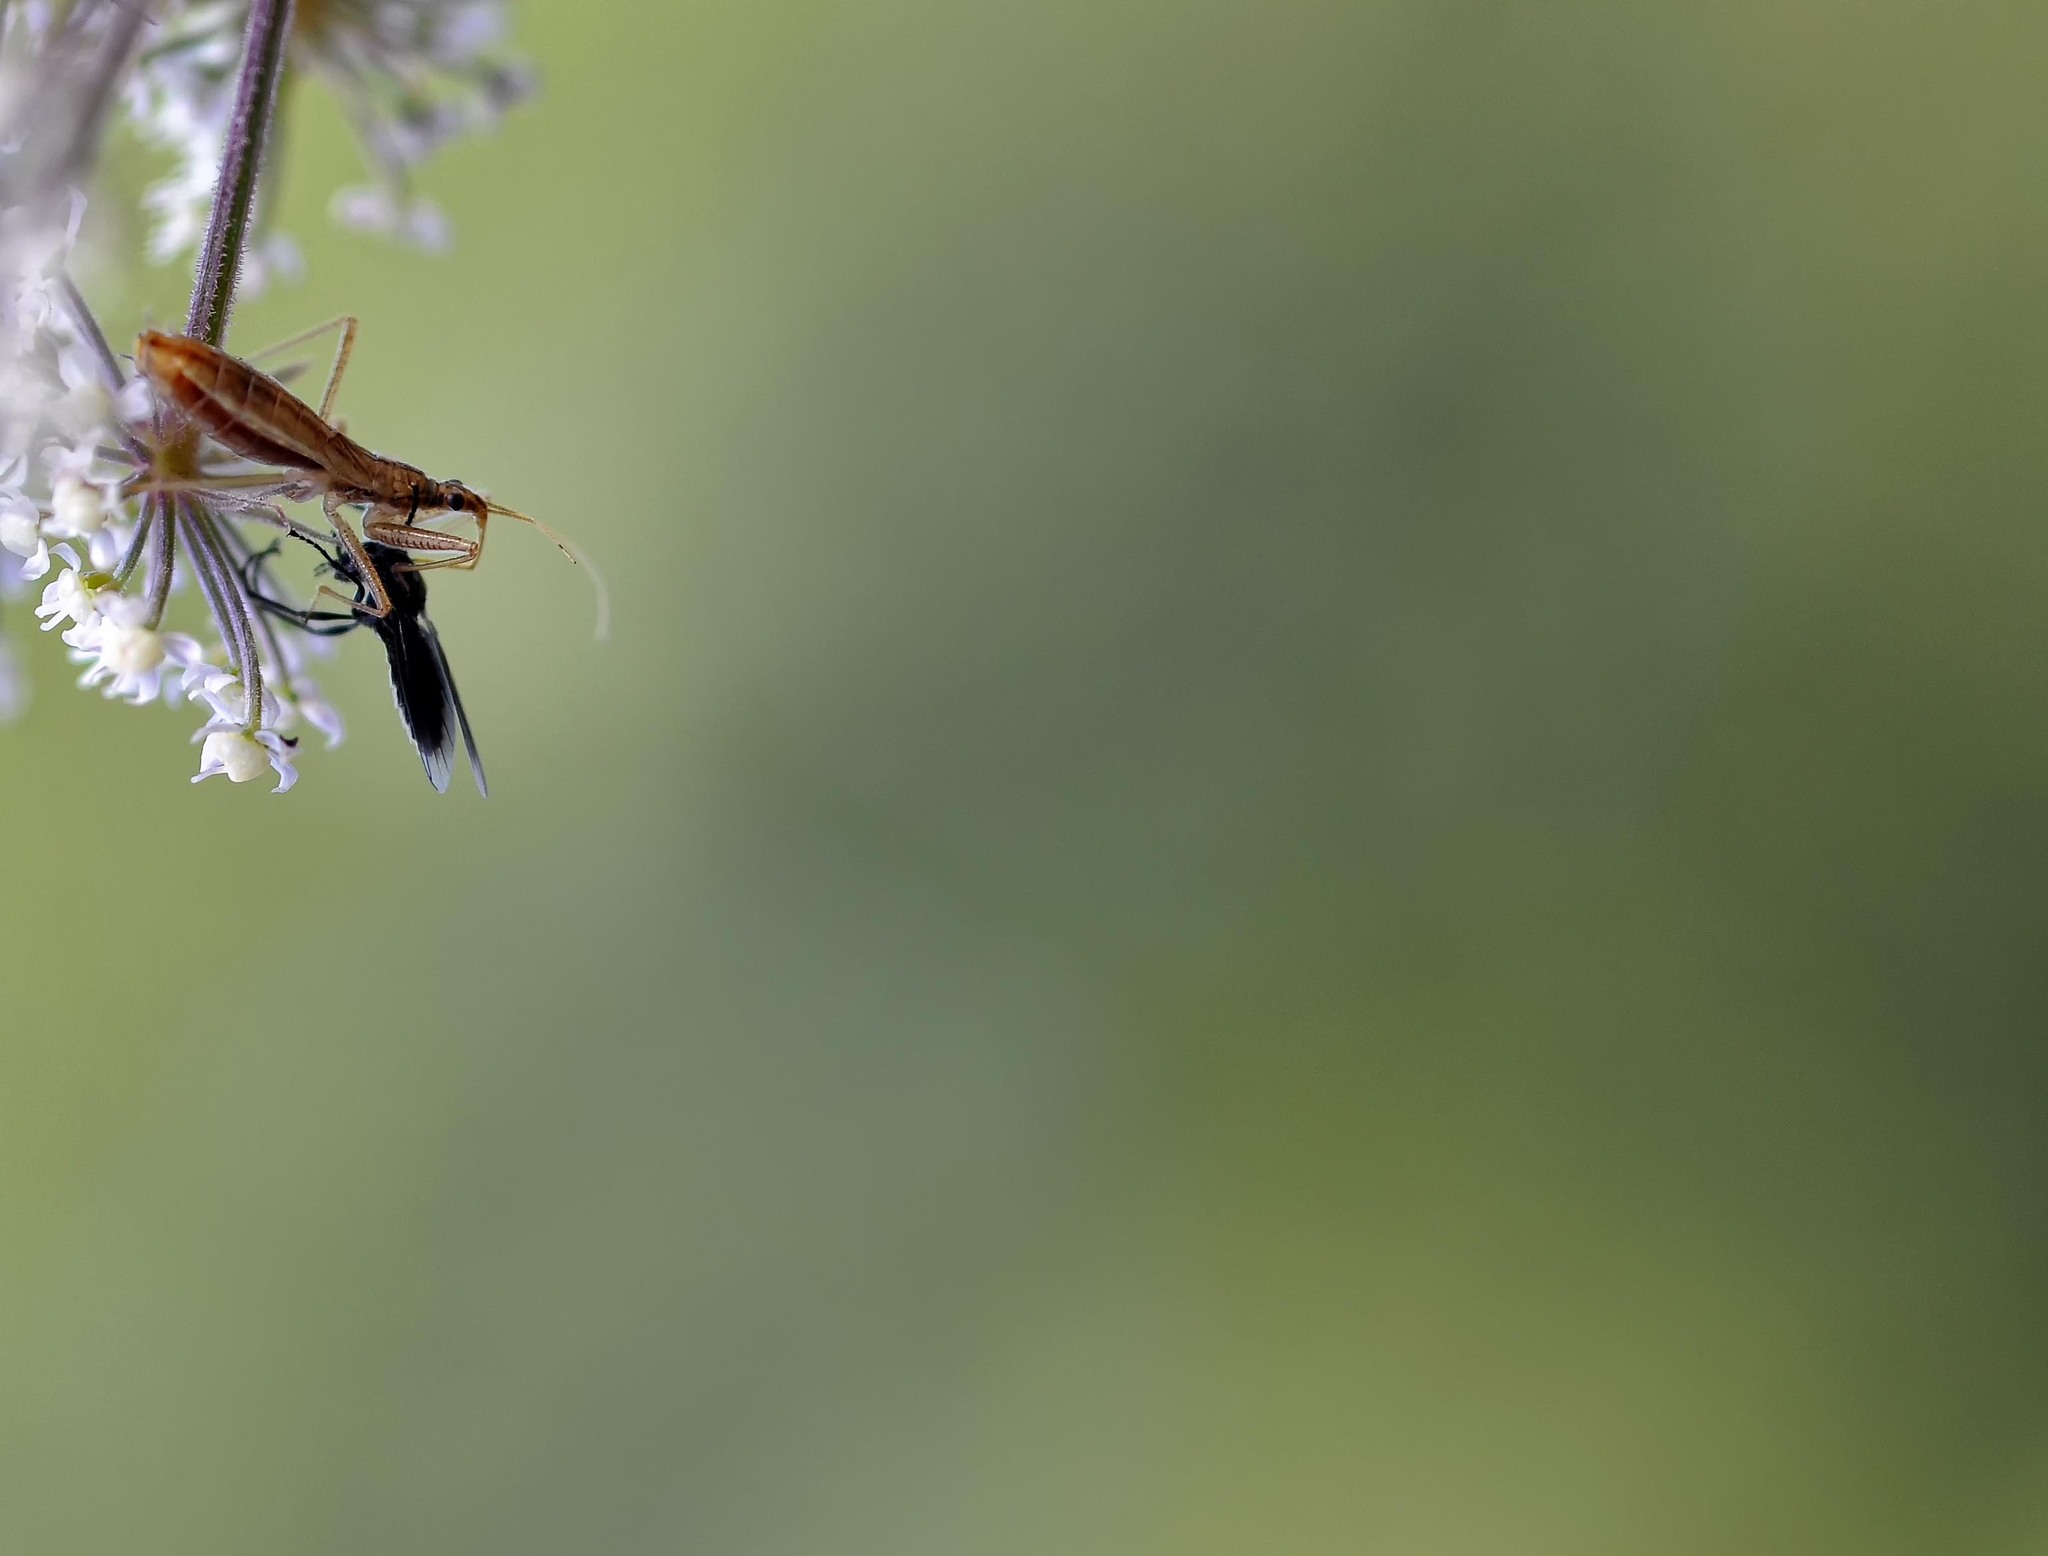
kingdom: Animalia
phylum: Arthropoda
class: Insecta
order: Hemiptera
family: Nabidae
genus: Nabis
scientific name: Nabis limbatus
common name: Marsh damselbug
